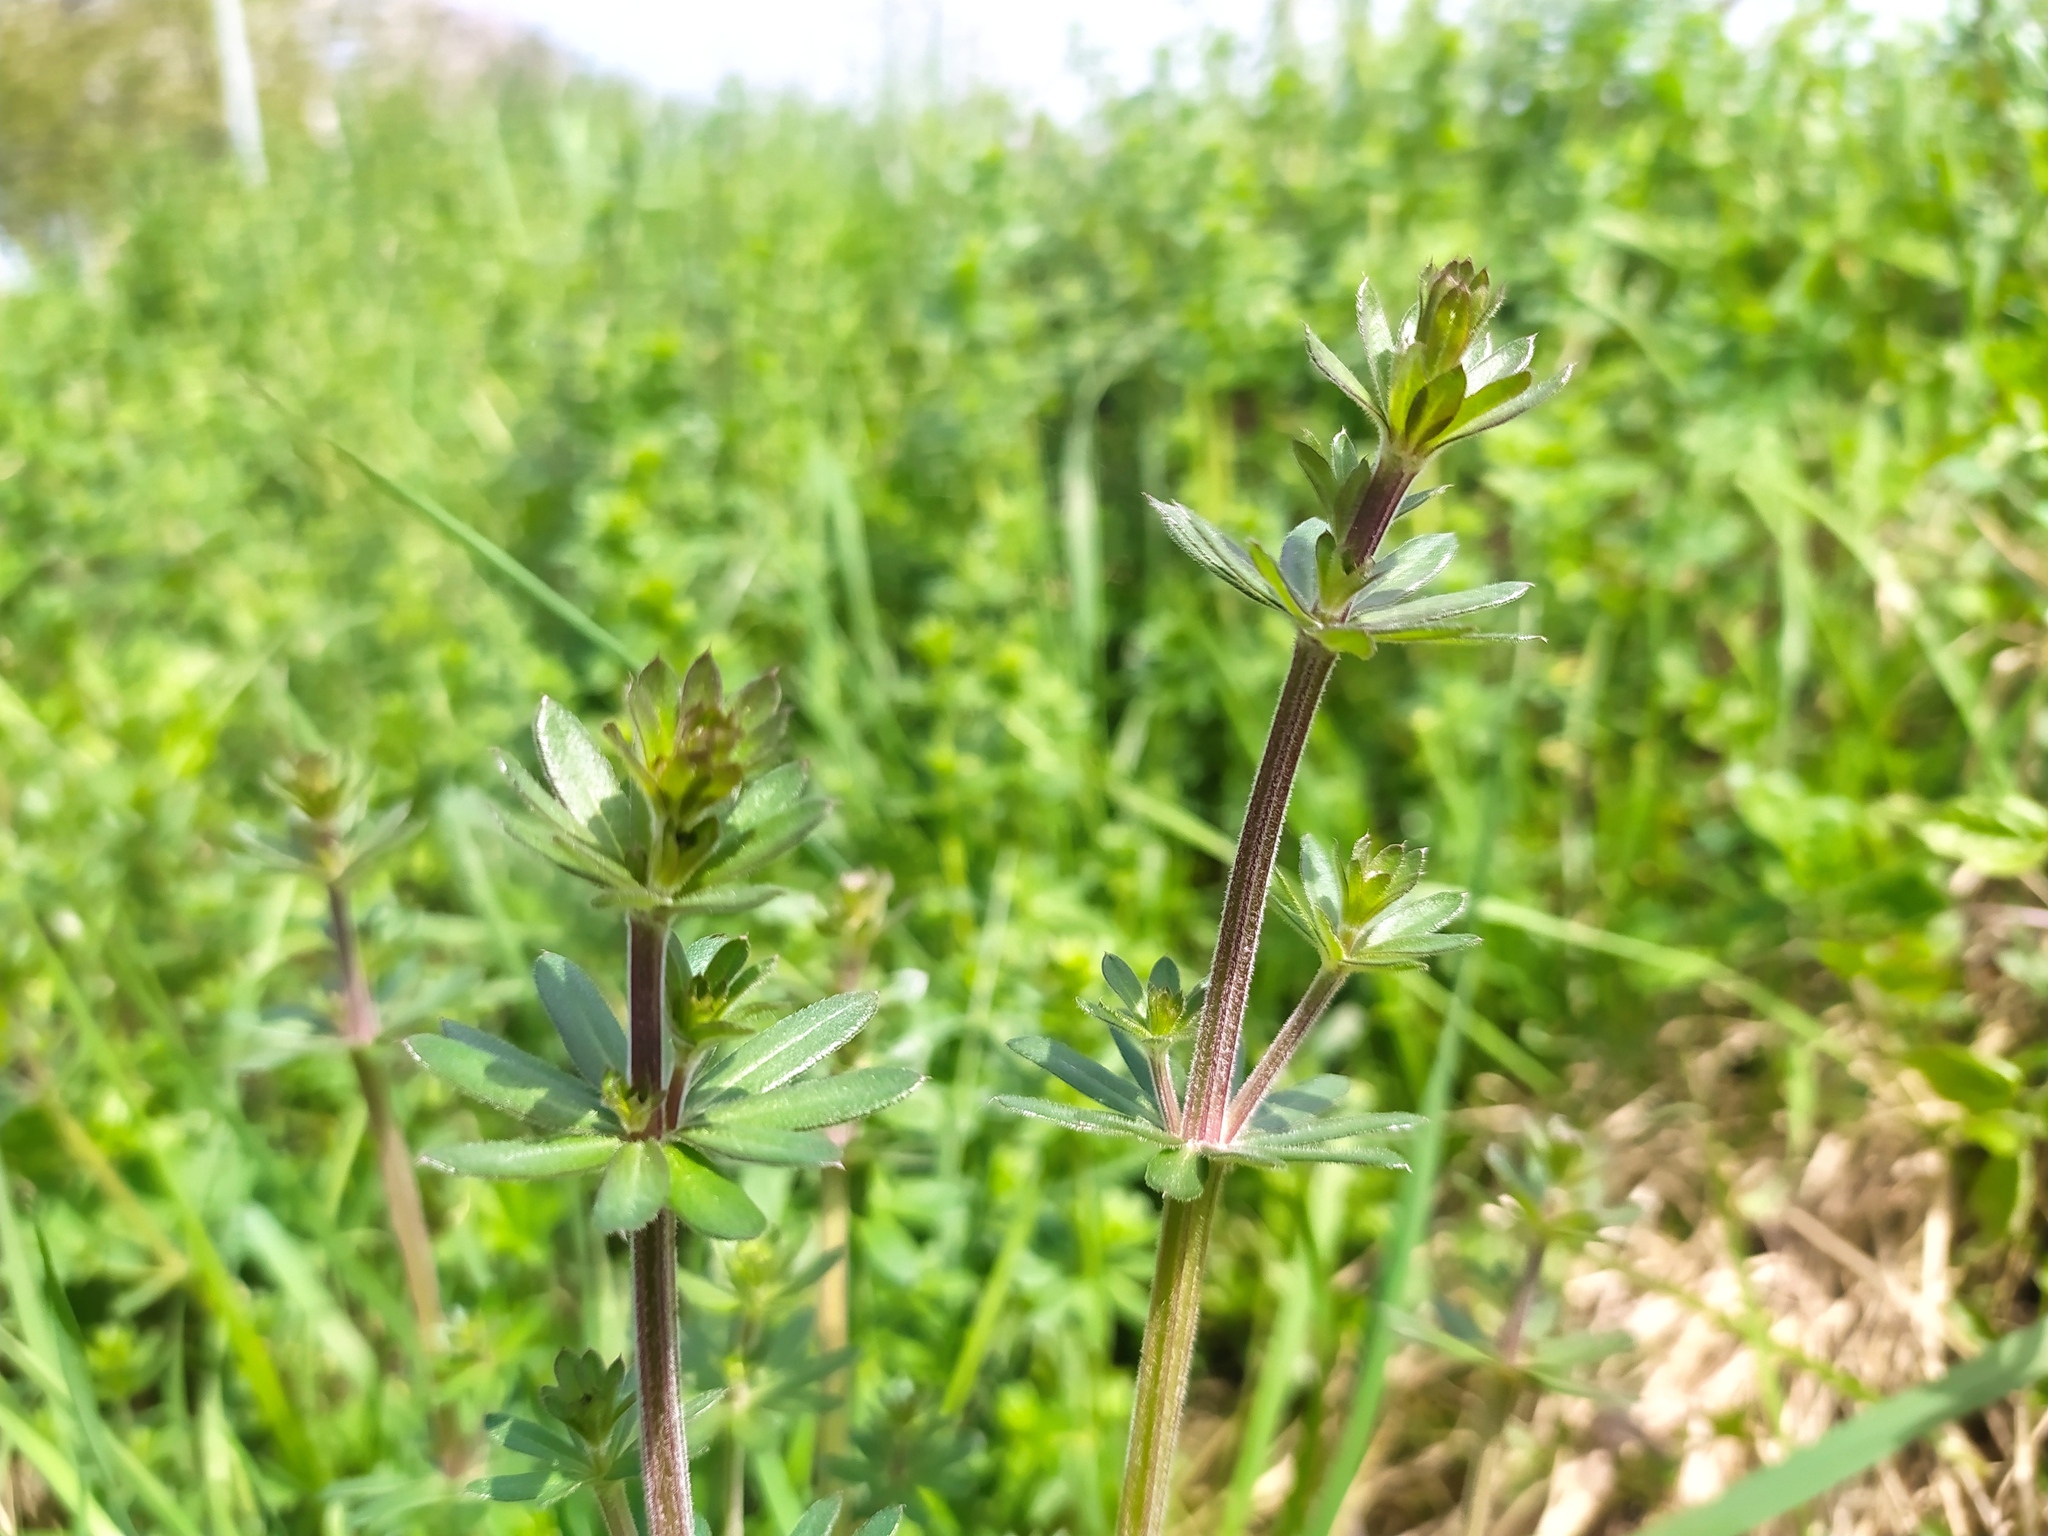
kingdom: Plantae
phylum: Tracheophyta
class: Magnoliopsida
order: Gentianales
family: Rubiaceae
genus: Galium
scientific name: Galium album
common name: White bedstraw
